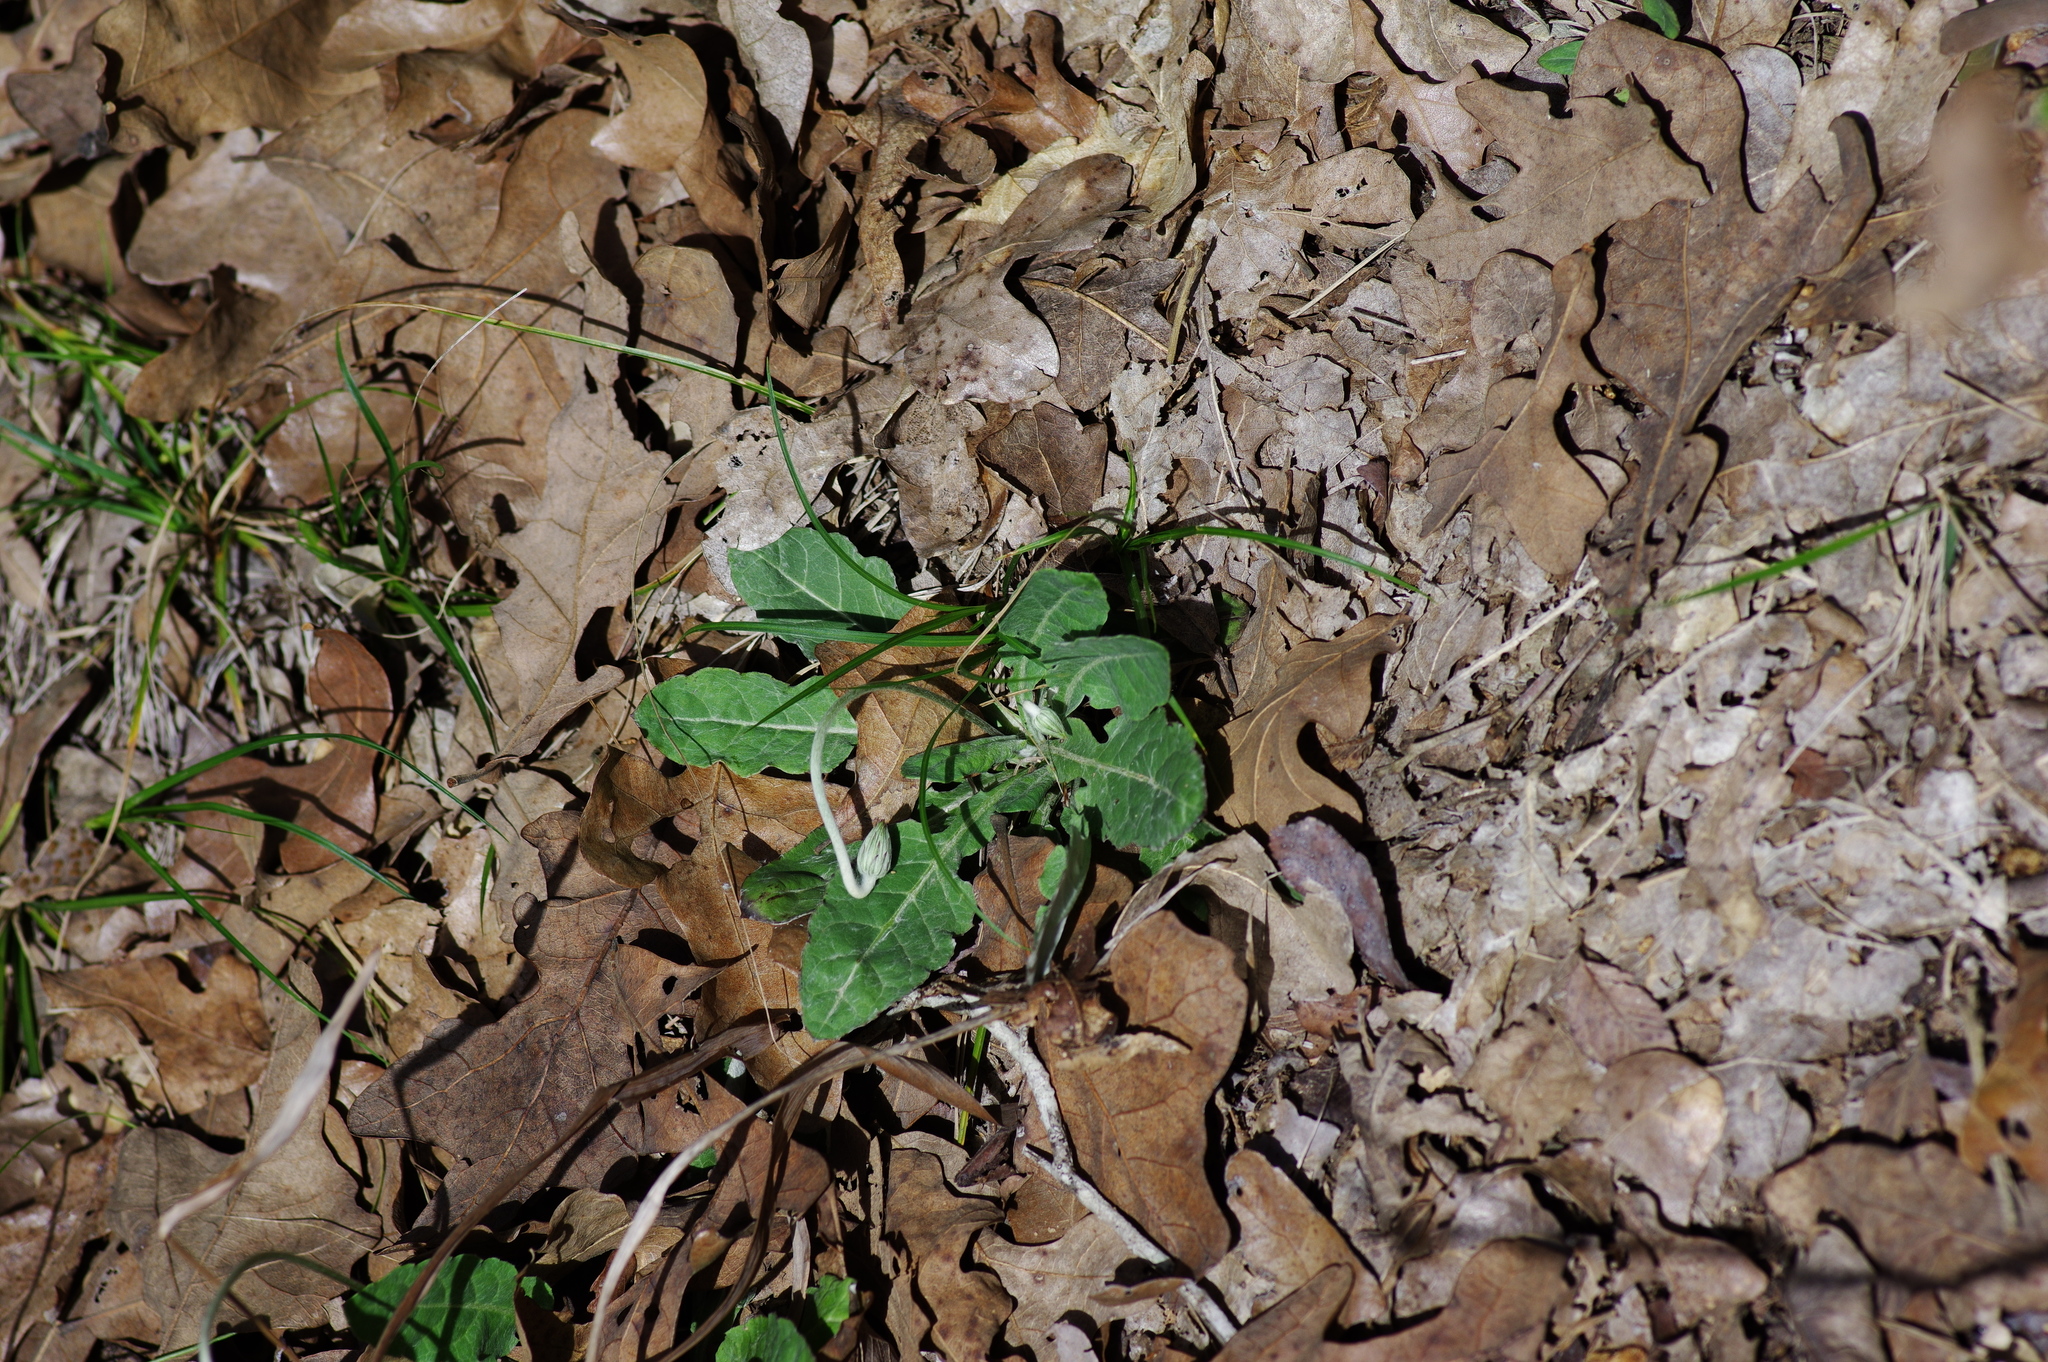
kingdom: Plantae
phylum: Tracheophyta
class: Magnoliopsida
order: Asterales
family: Asteraceae
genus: Chaptalia
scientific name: Chaptalia texana
